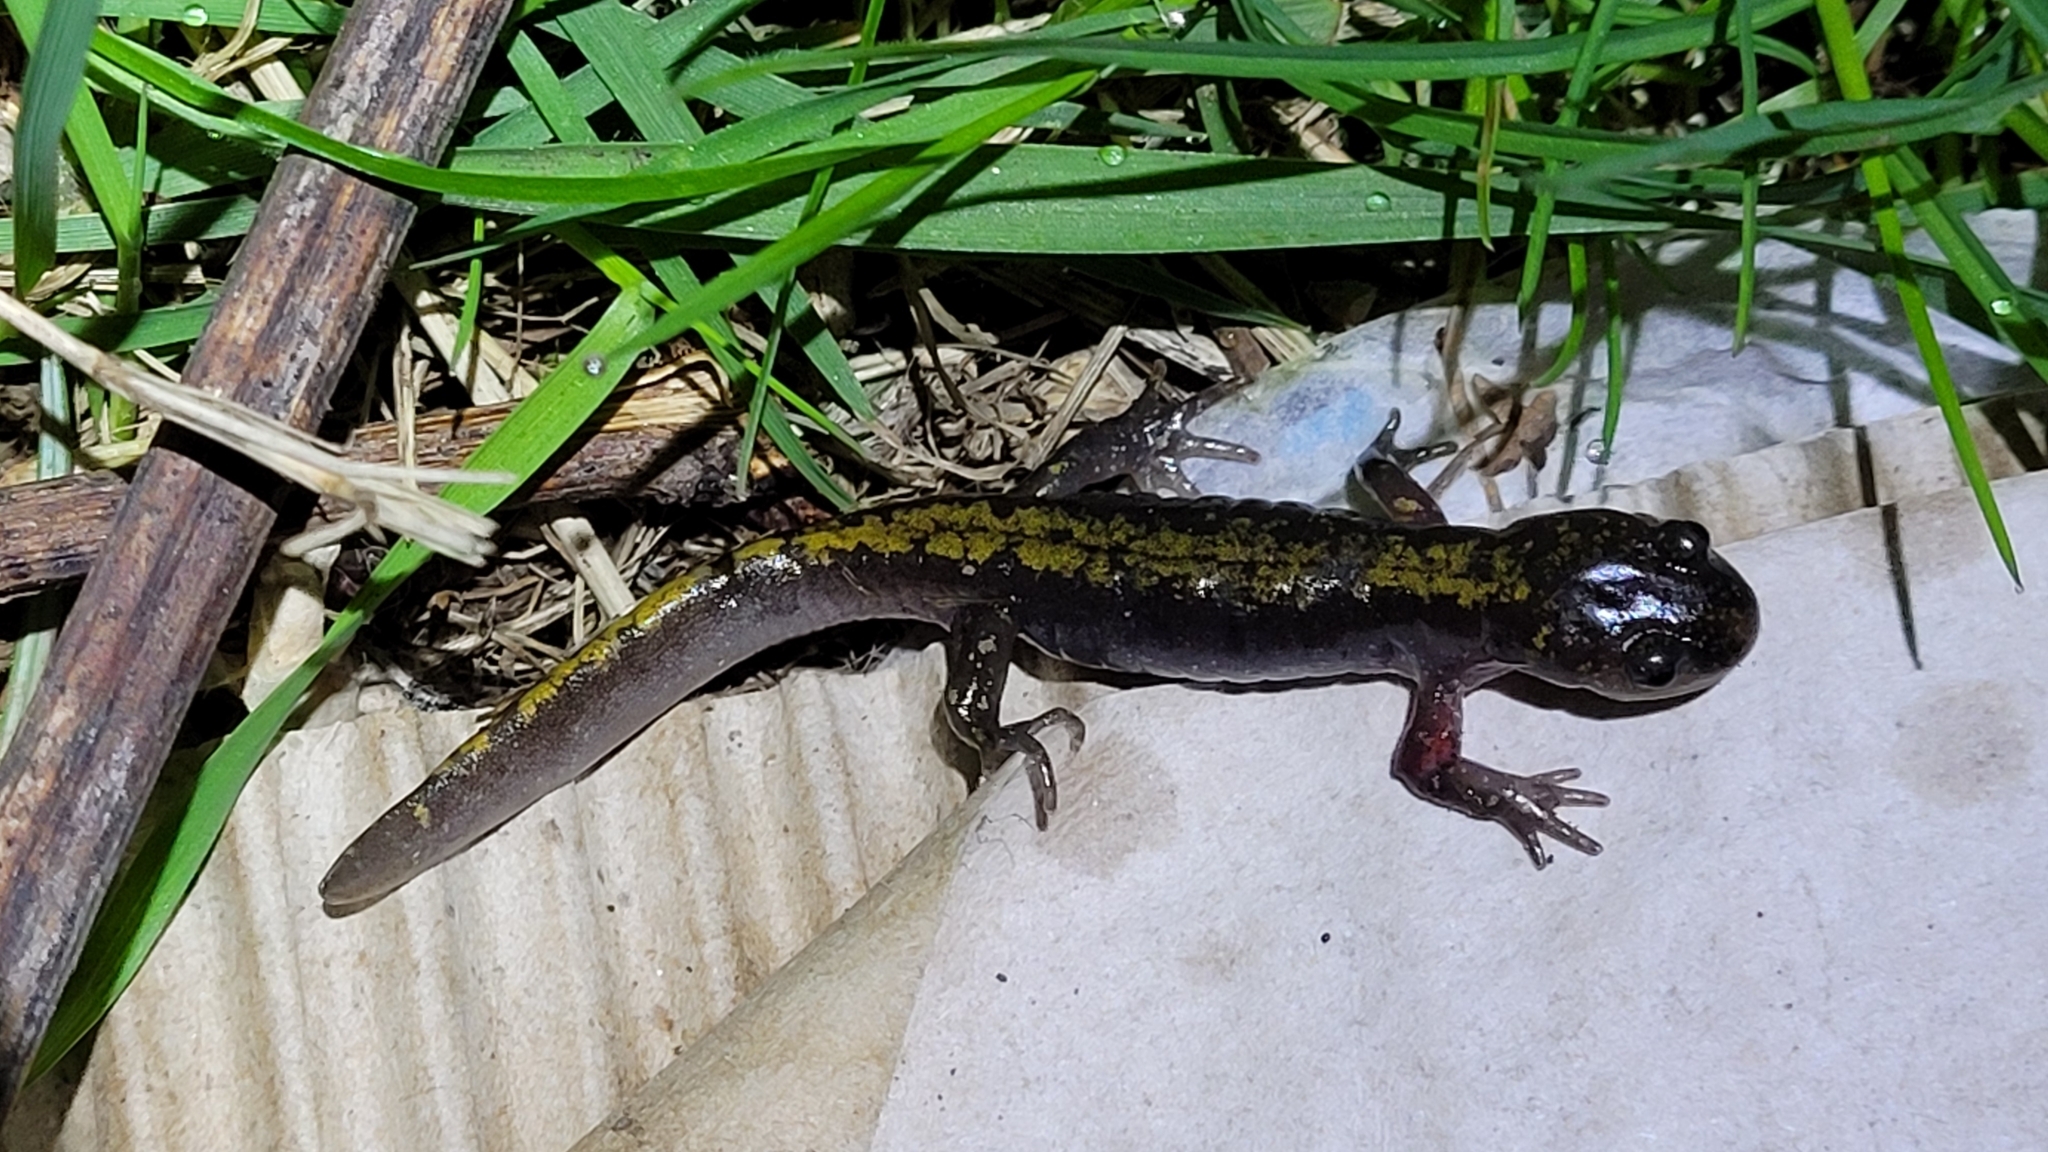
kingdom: Animalia
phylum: Chordata
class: Amphibia
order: Caudata
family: Ambystomatidae
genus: Ambystoma
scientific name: Ambystoma macrodactylum
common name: Long-toed salamander
